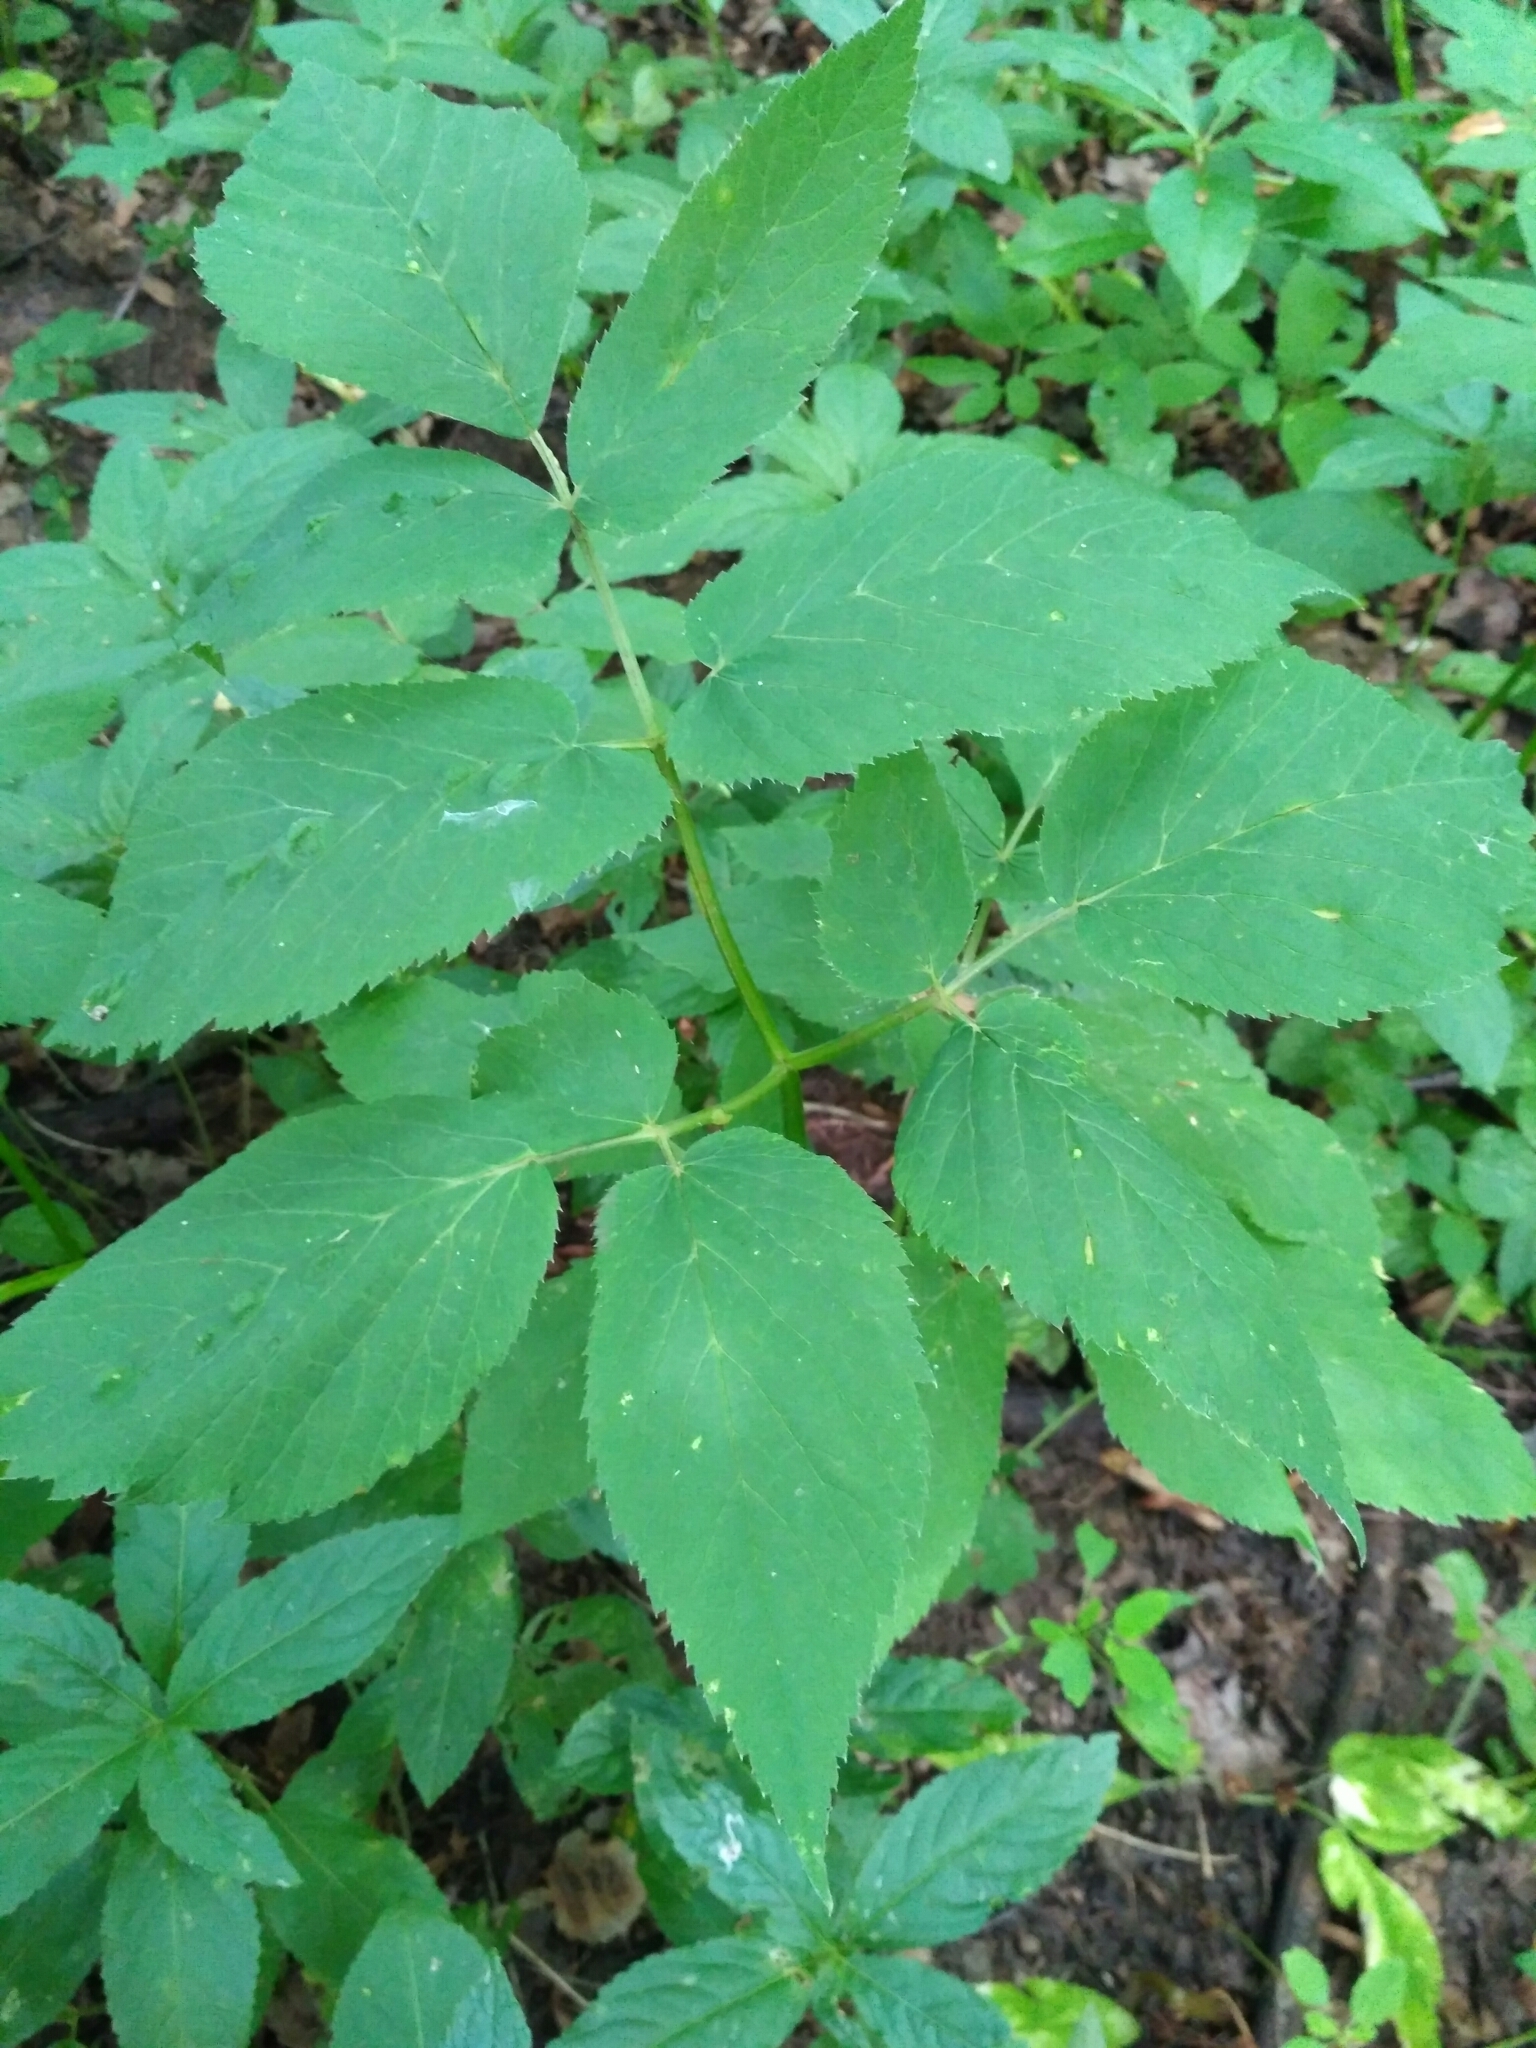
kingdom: Plantae
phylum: Tracheophyta
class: Magnoliopsida
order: Apiales
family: Apiaceae
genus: Aegopodium
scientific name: Aegopodium podagraria
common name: Ground-elder
